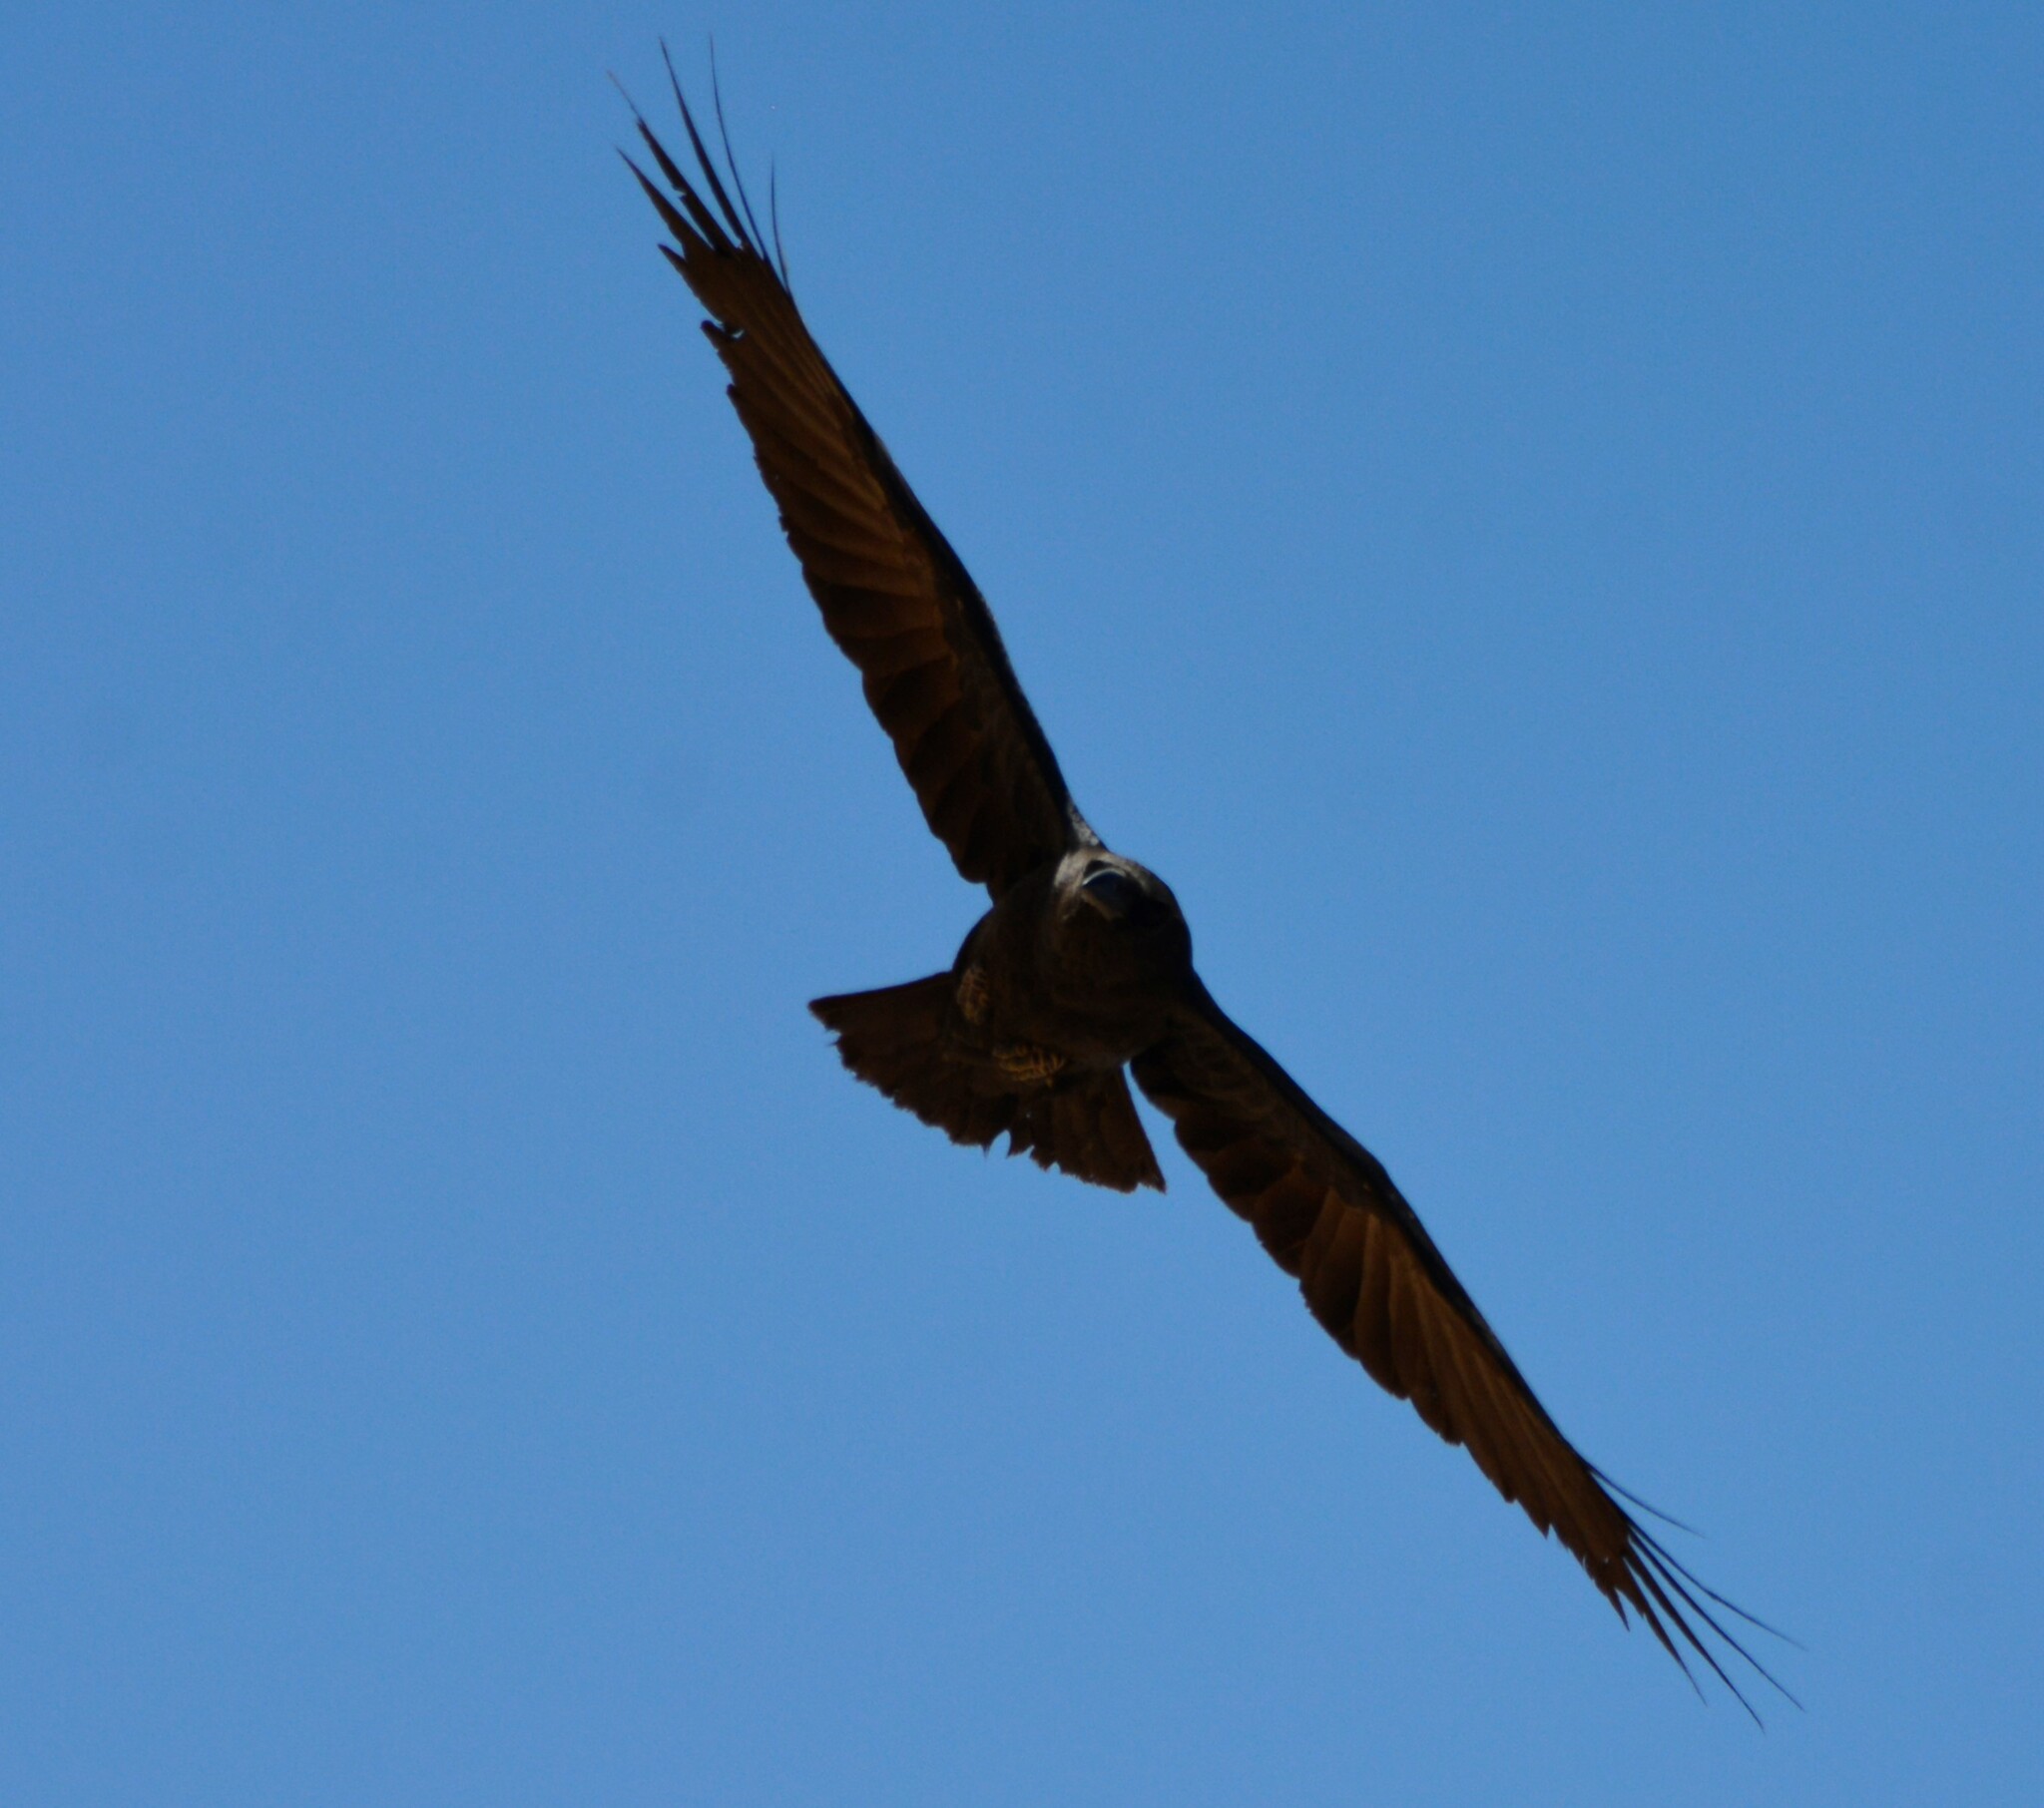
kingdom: Animalia
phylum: Chordata
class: Aves
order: Passeriformes
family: Corvidae
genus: Corvus
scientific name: Corvus ruficollis
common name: Brown-necked raven
